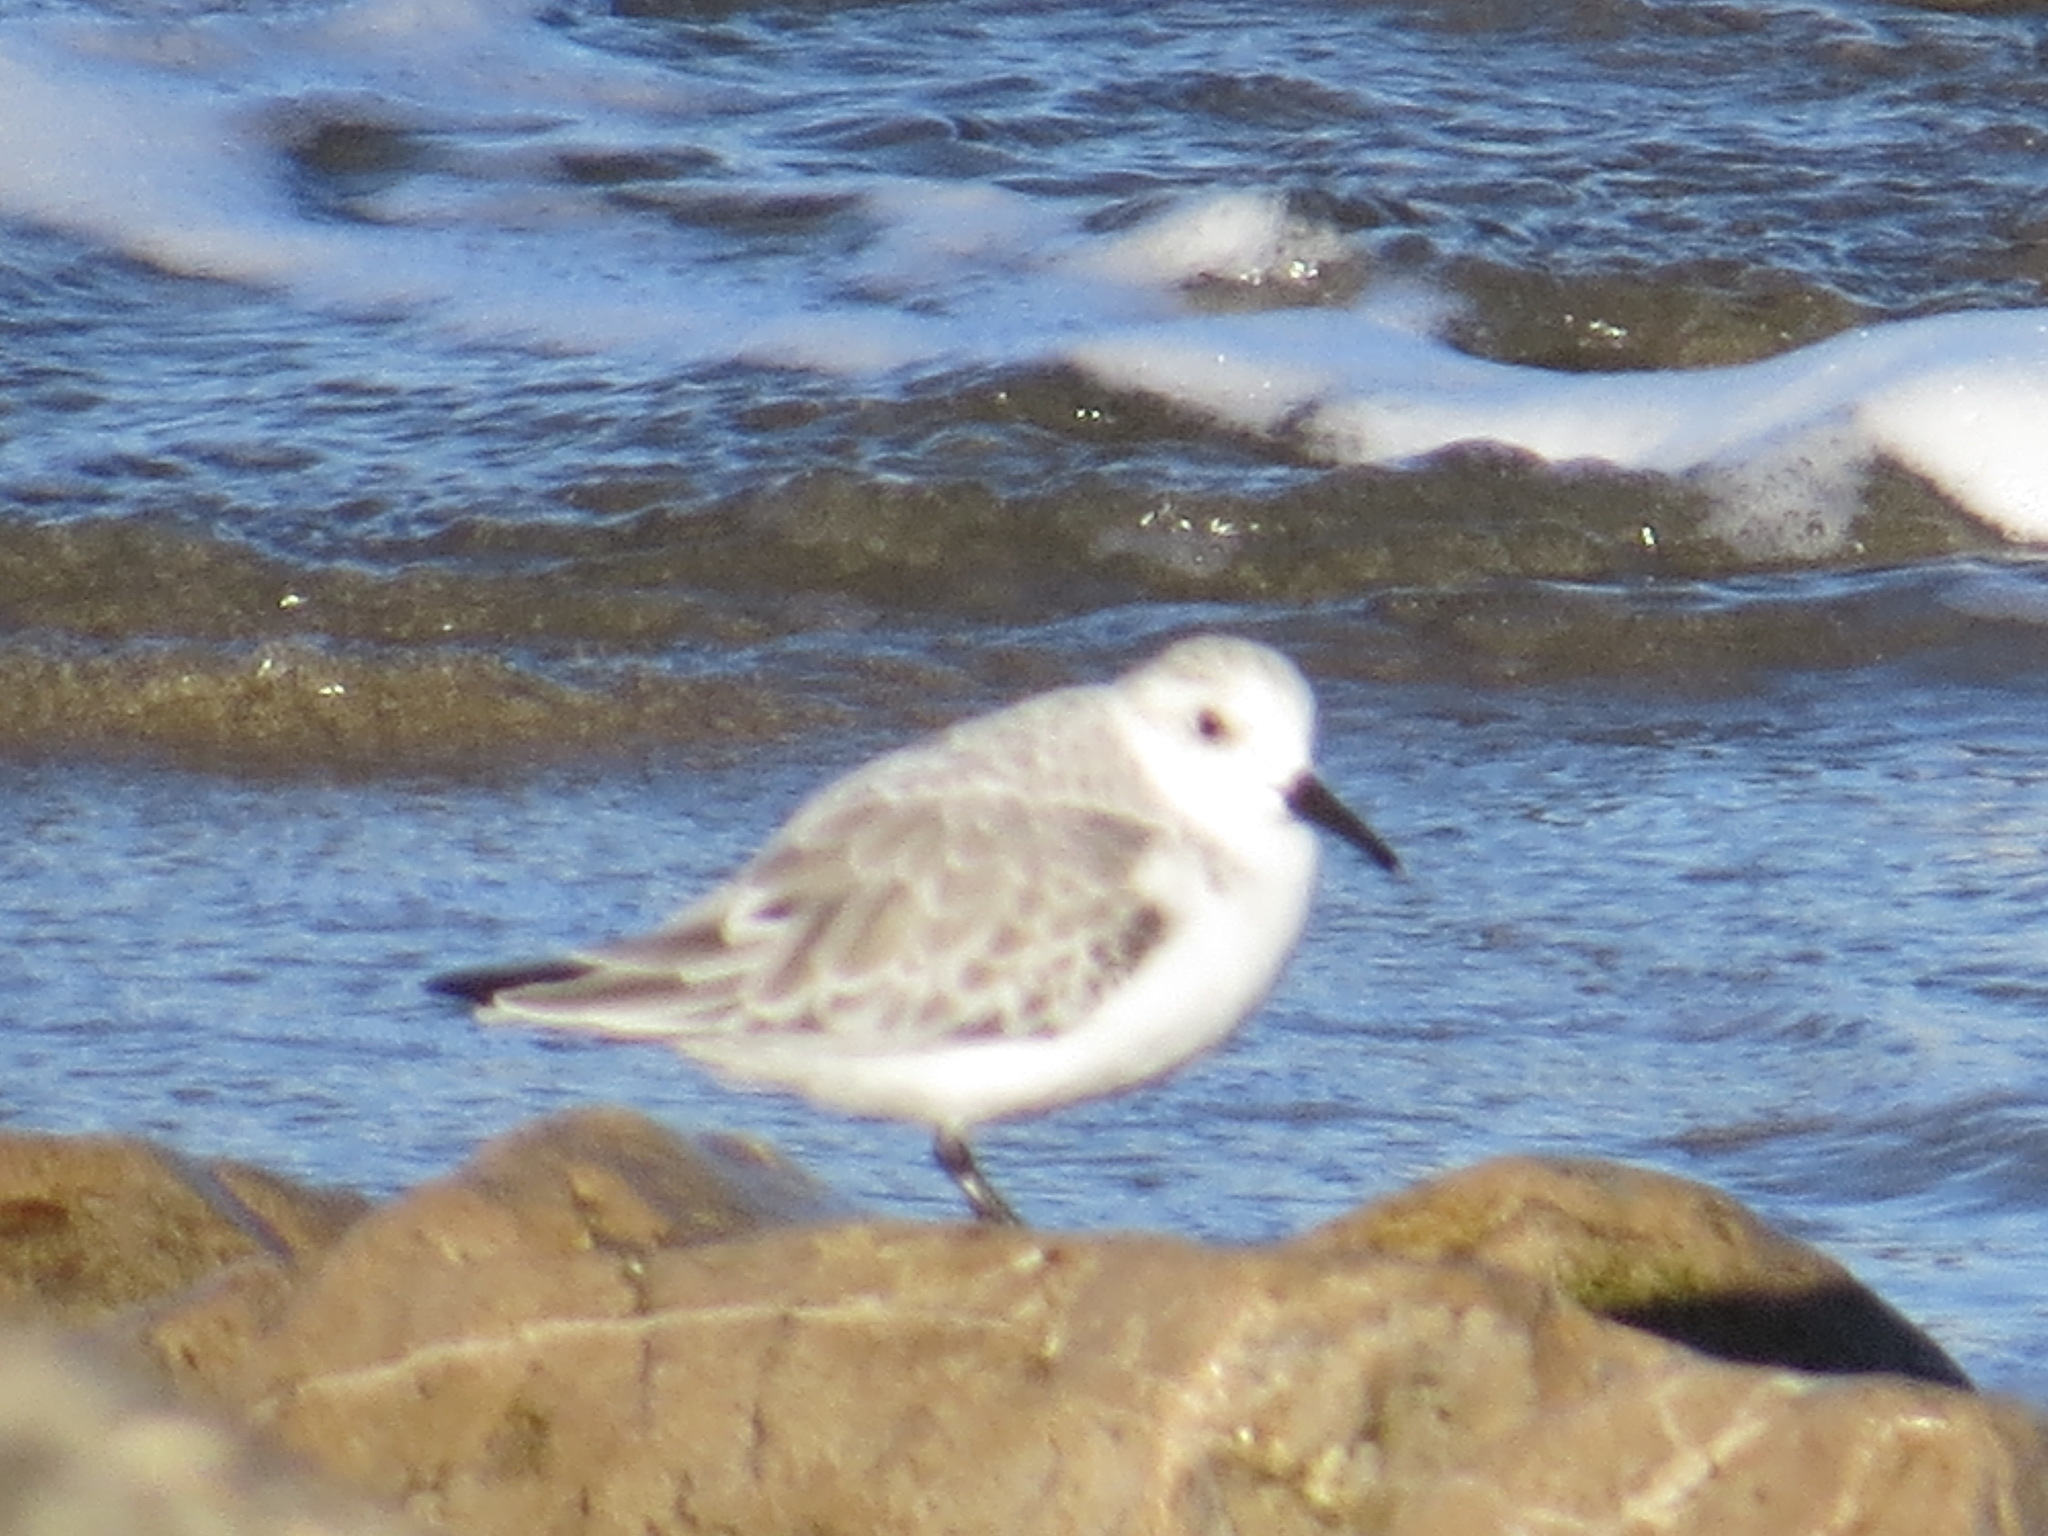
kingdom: Animalia
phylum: Chordata
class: Aves
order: Charadriiformes
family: Scolopacidae
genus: Calidris
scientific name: Calidris alba
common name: Sanderling
